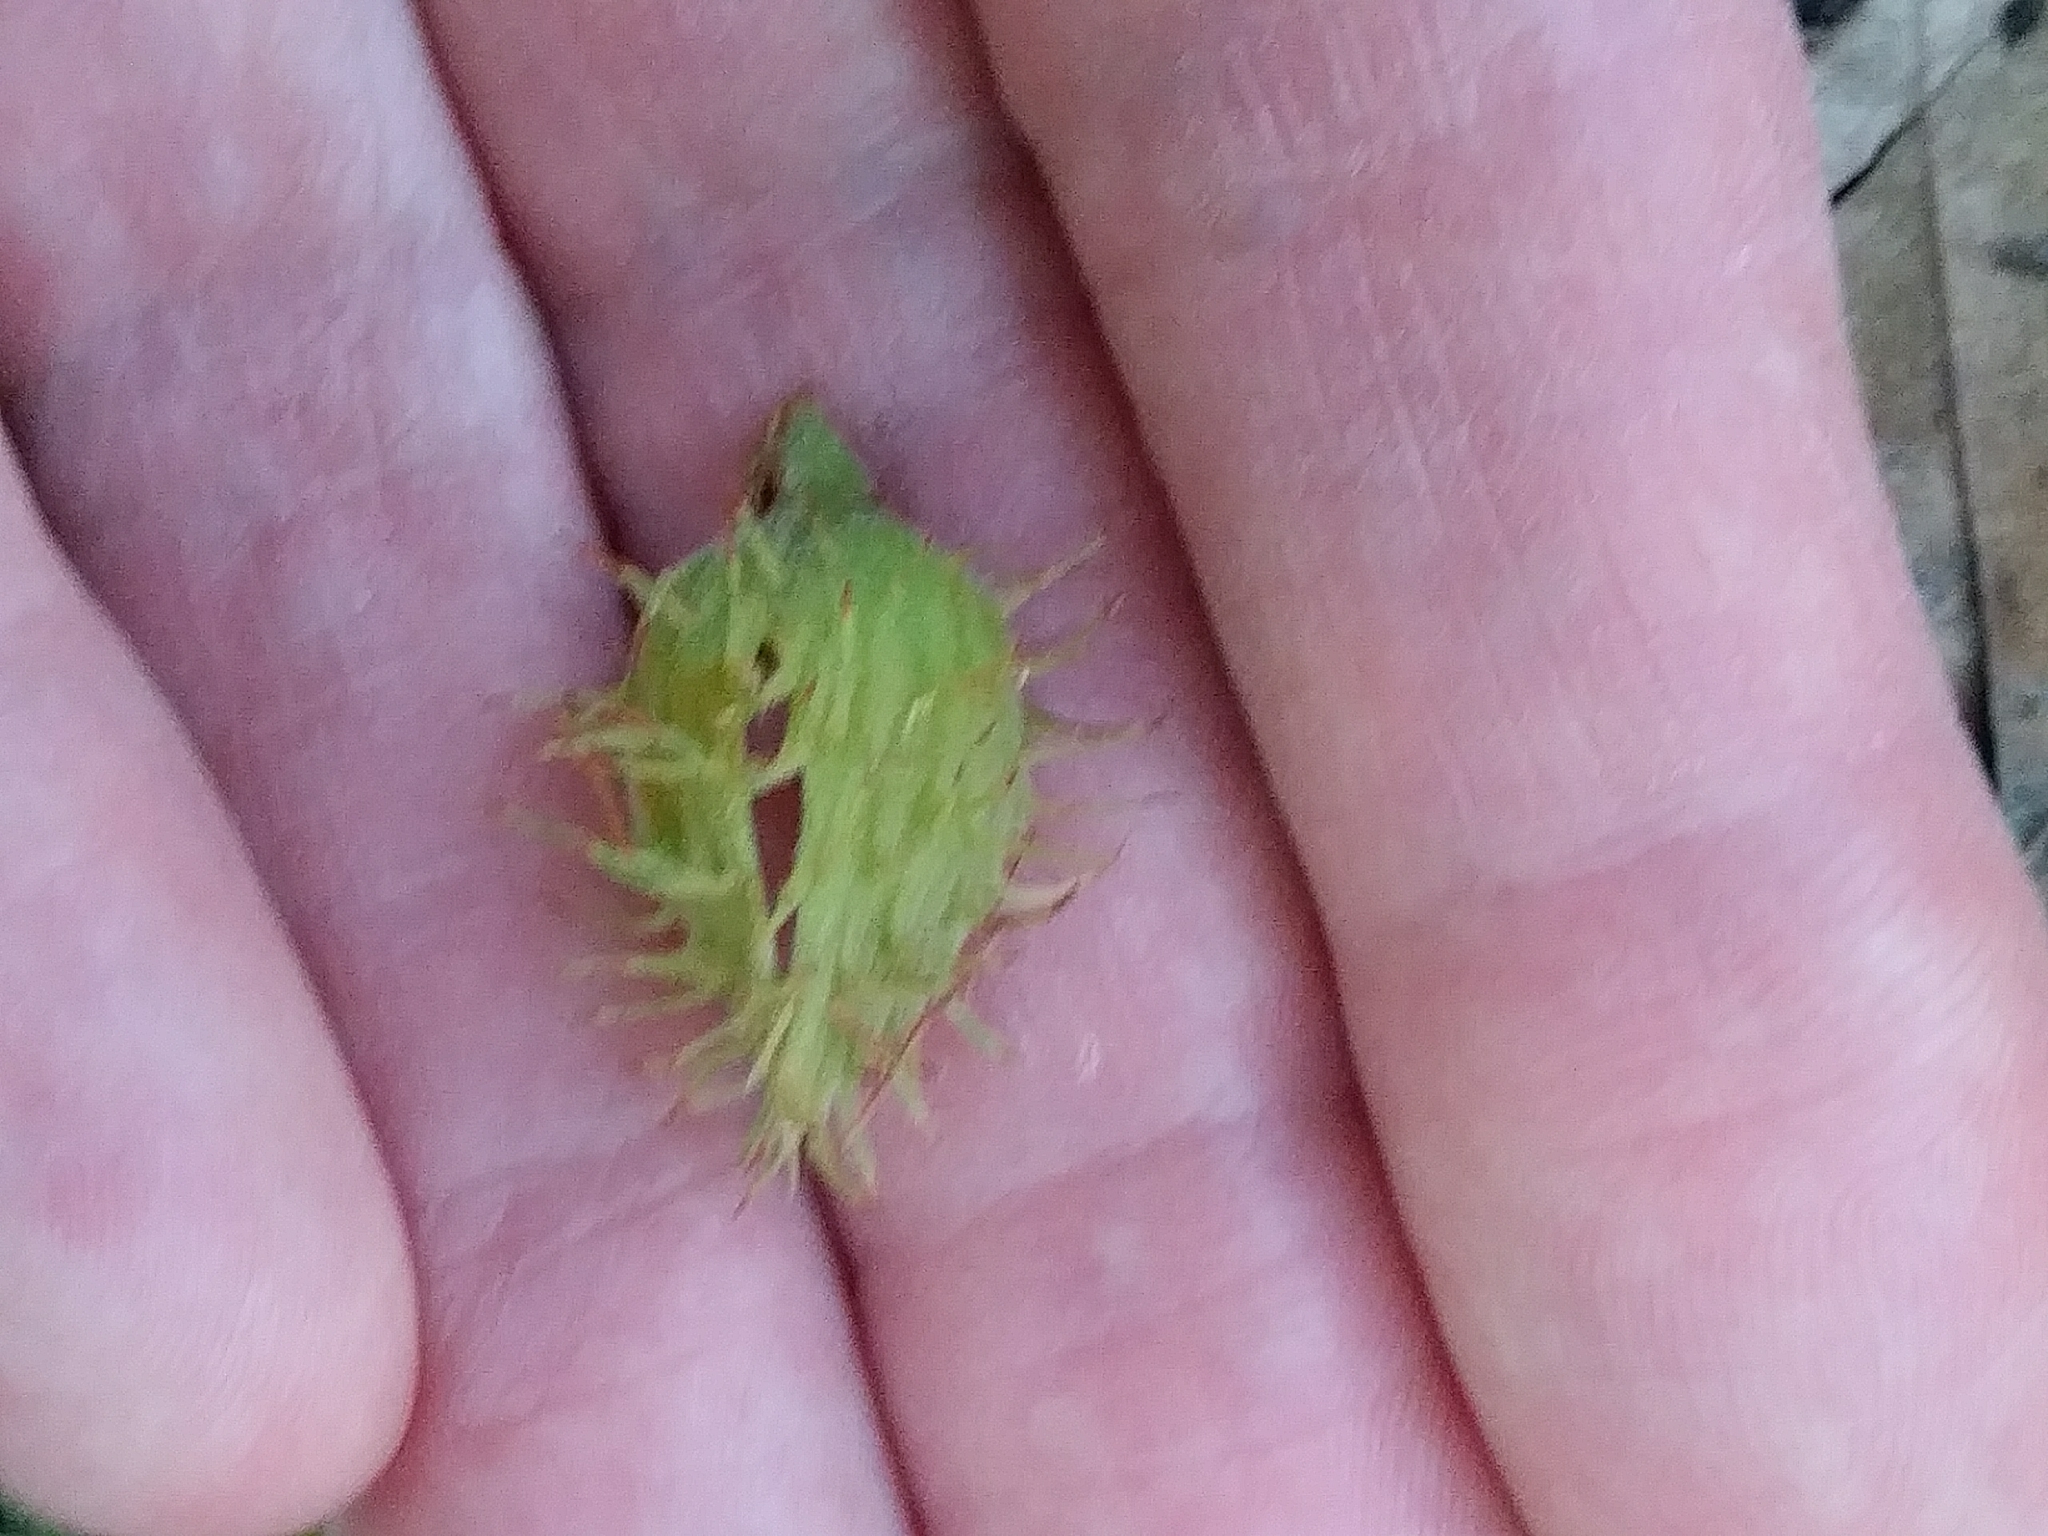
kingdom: Plantae
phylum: Tracheophyta
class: Magnoliopsida
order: Fagales
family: Fagaceae
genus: Fagus
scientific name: Fagus grandifolia
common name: American beech
